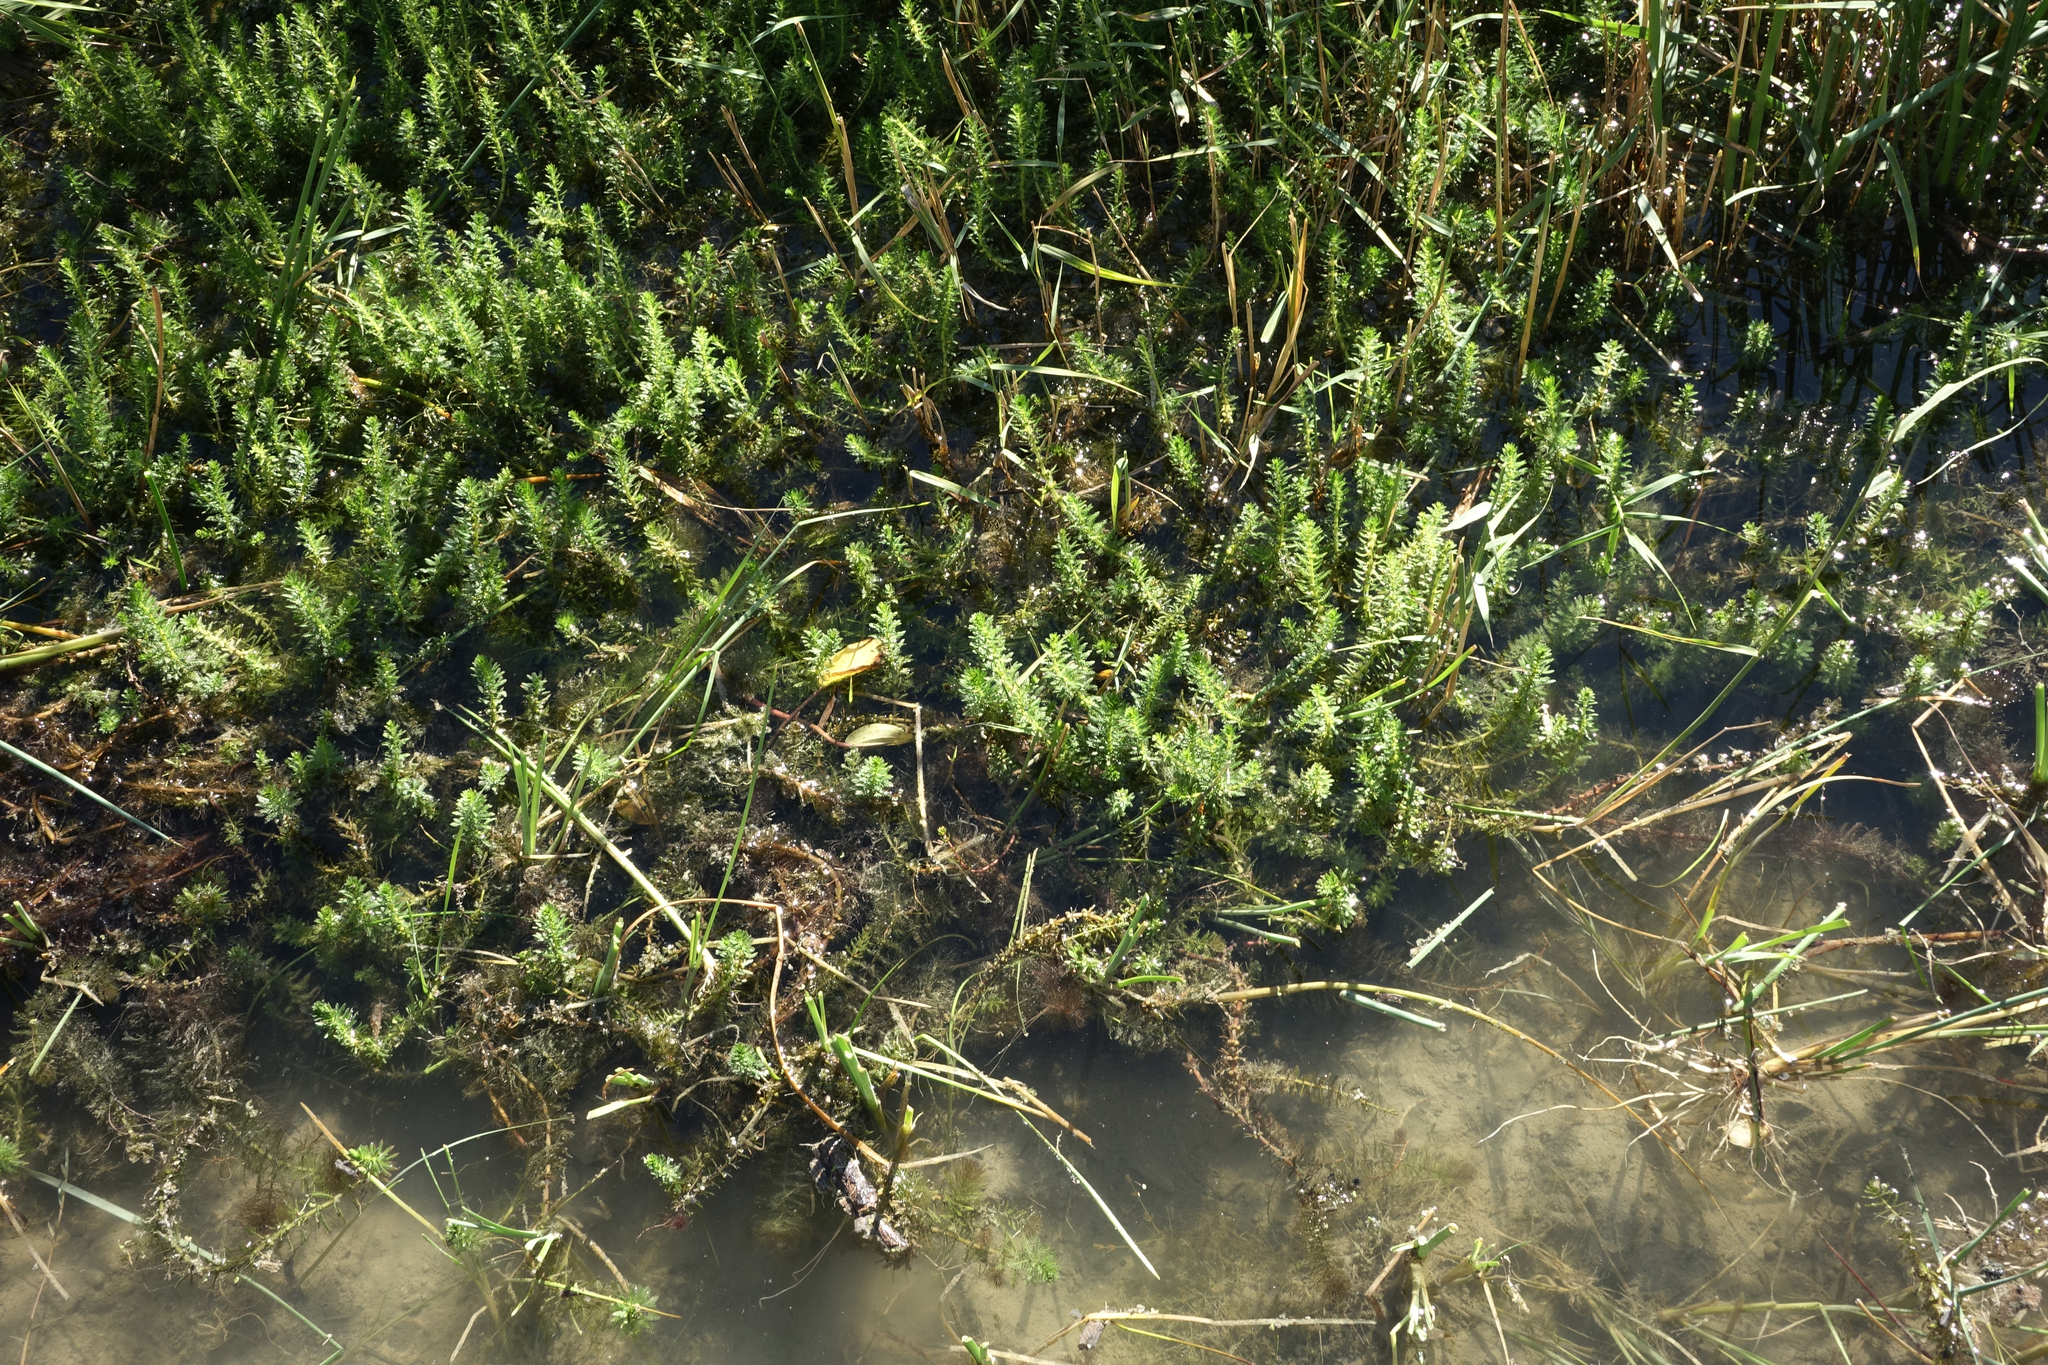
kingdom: Plantae
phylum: Tracheophyta
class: Magnoliopsida
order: Saxifragales
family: Haloragaceae
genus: Myriophyllum
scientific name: Myriophyllum verticillatum
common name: Whorled water-milfoil
